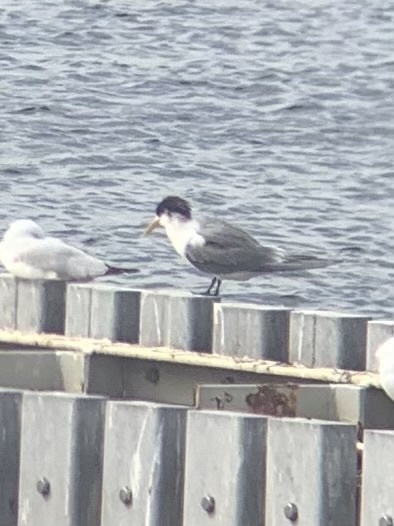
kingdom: Animalia
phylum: Chordata
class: Aves
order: Charadriiformes
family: Laridae
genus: Thalasseus
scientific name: Thalasseus bergii
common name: Greater crested tern
